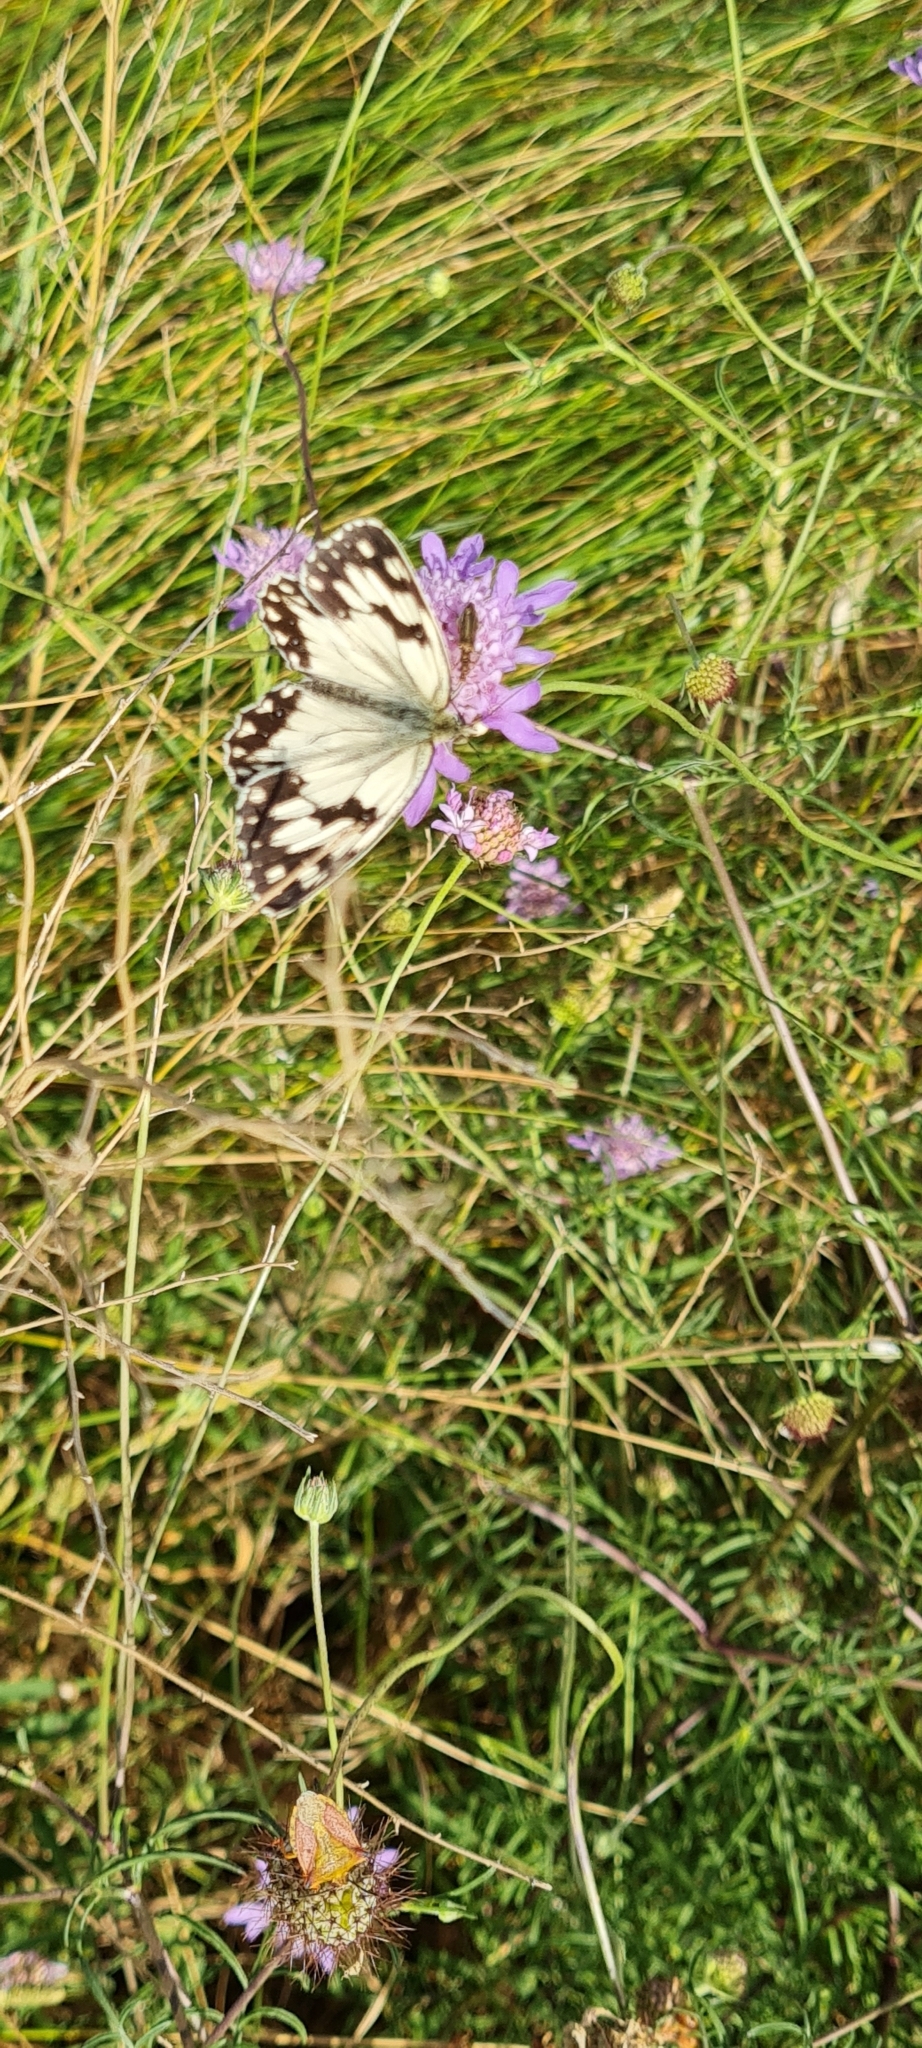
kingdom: Animalia
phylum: Arthropoda
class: Insecta
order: Lepidoptera
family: Nymphalidae
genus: Melanargia
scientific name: Melanargia lachesis
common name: Iberian marbled white
